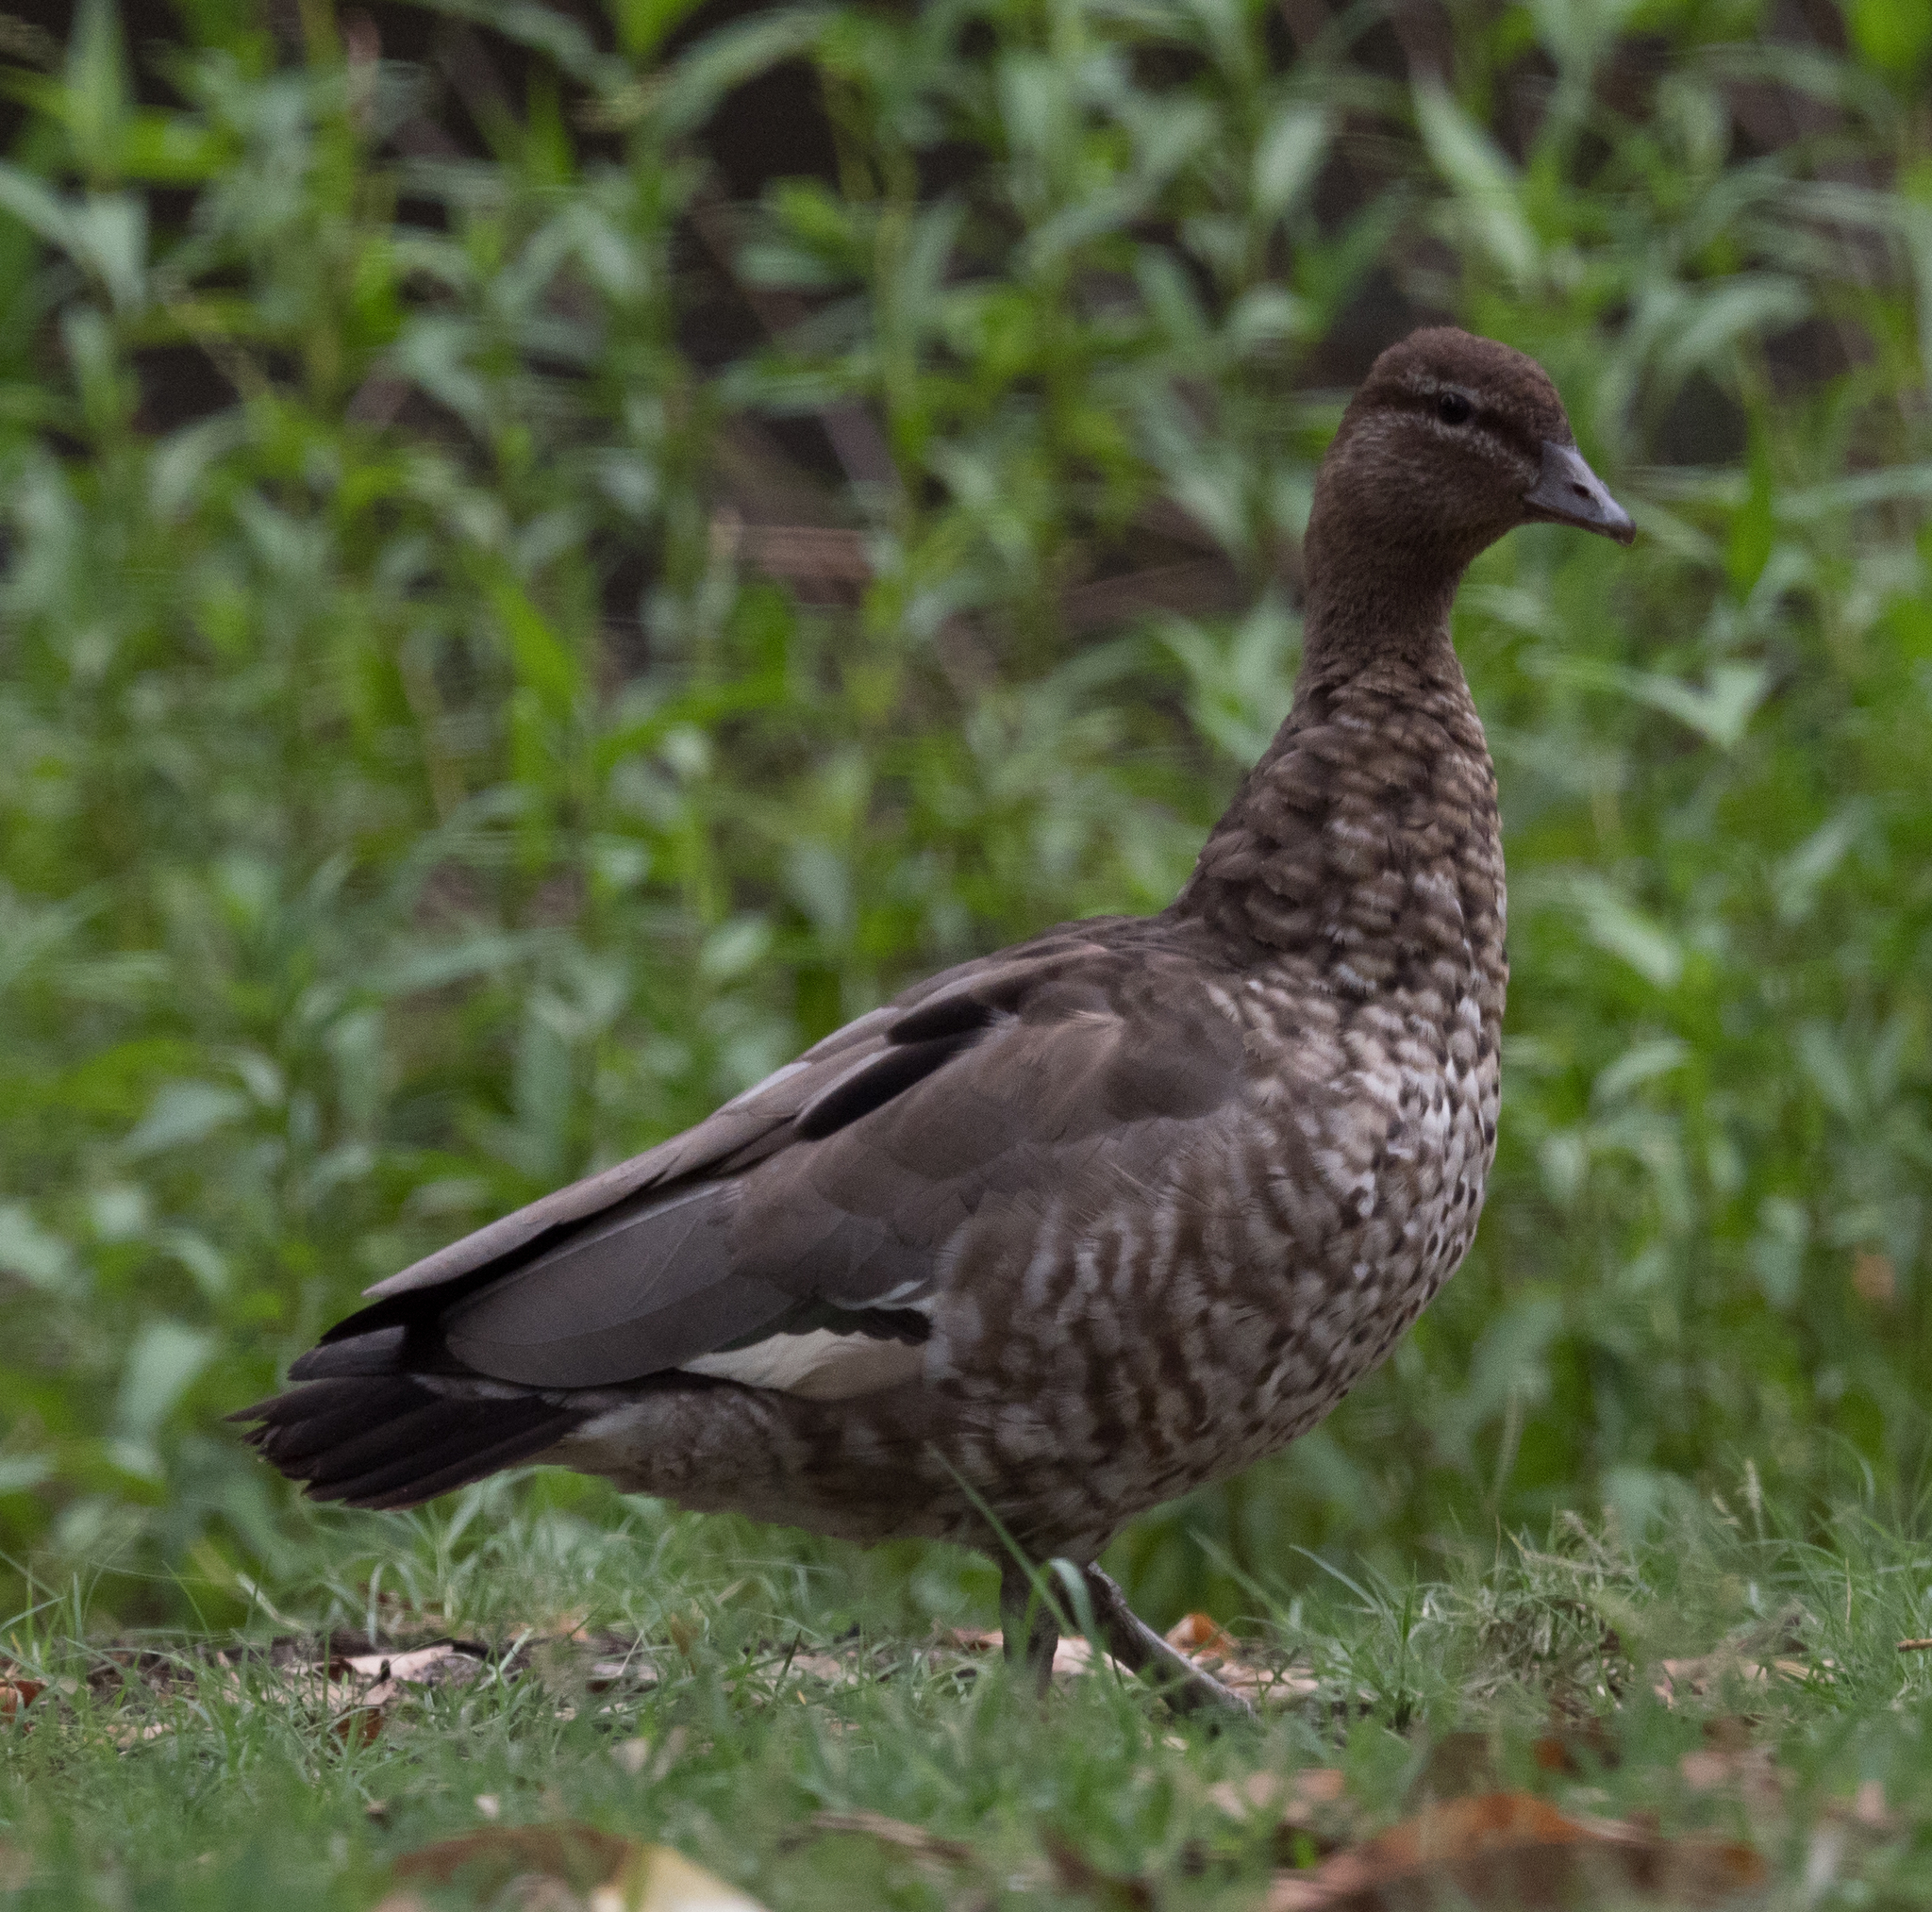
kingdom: Animalia
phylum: Chordata
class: Aves
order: Anseriformes
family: Anatidae
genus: Chenonetta
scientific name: Chenonetta jubata
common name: Maned duck
